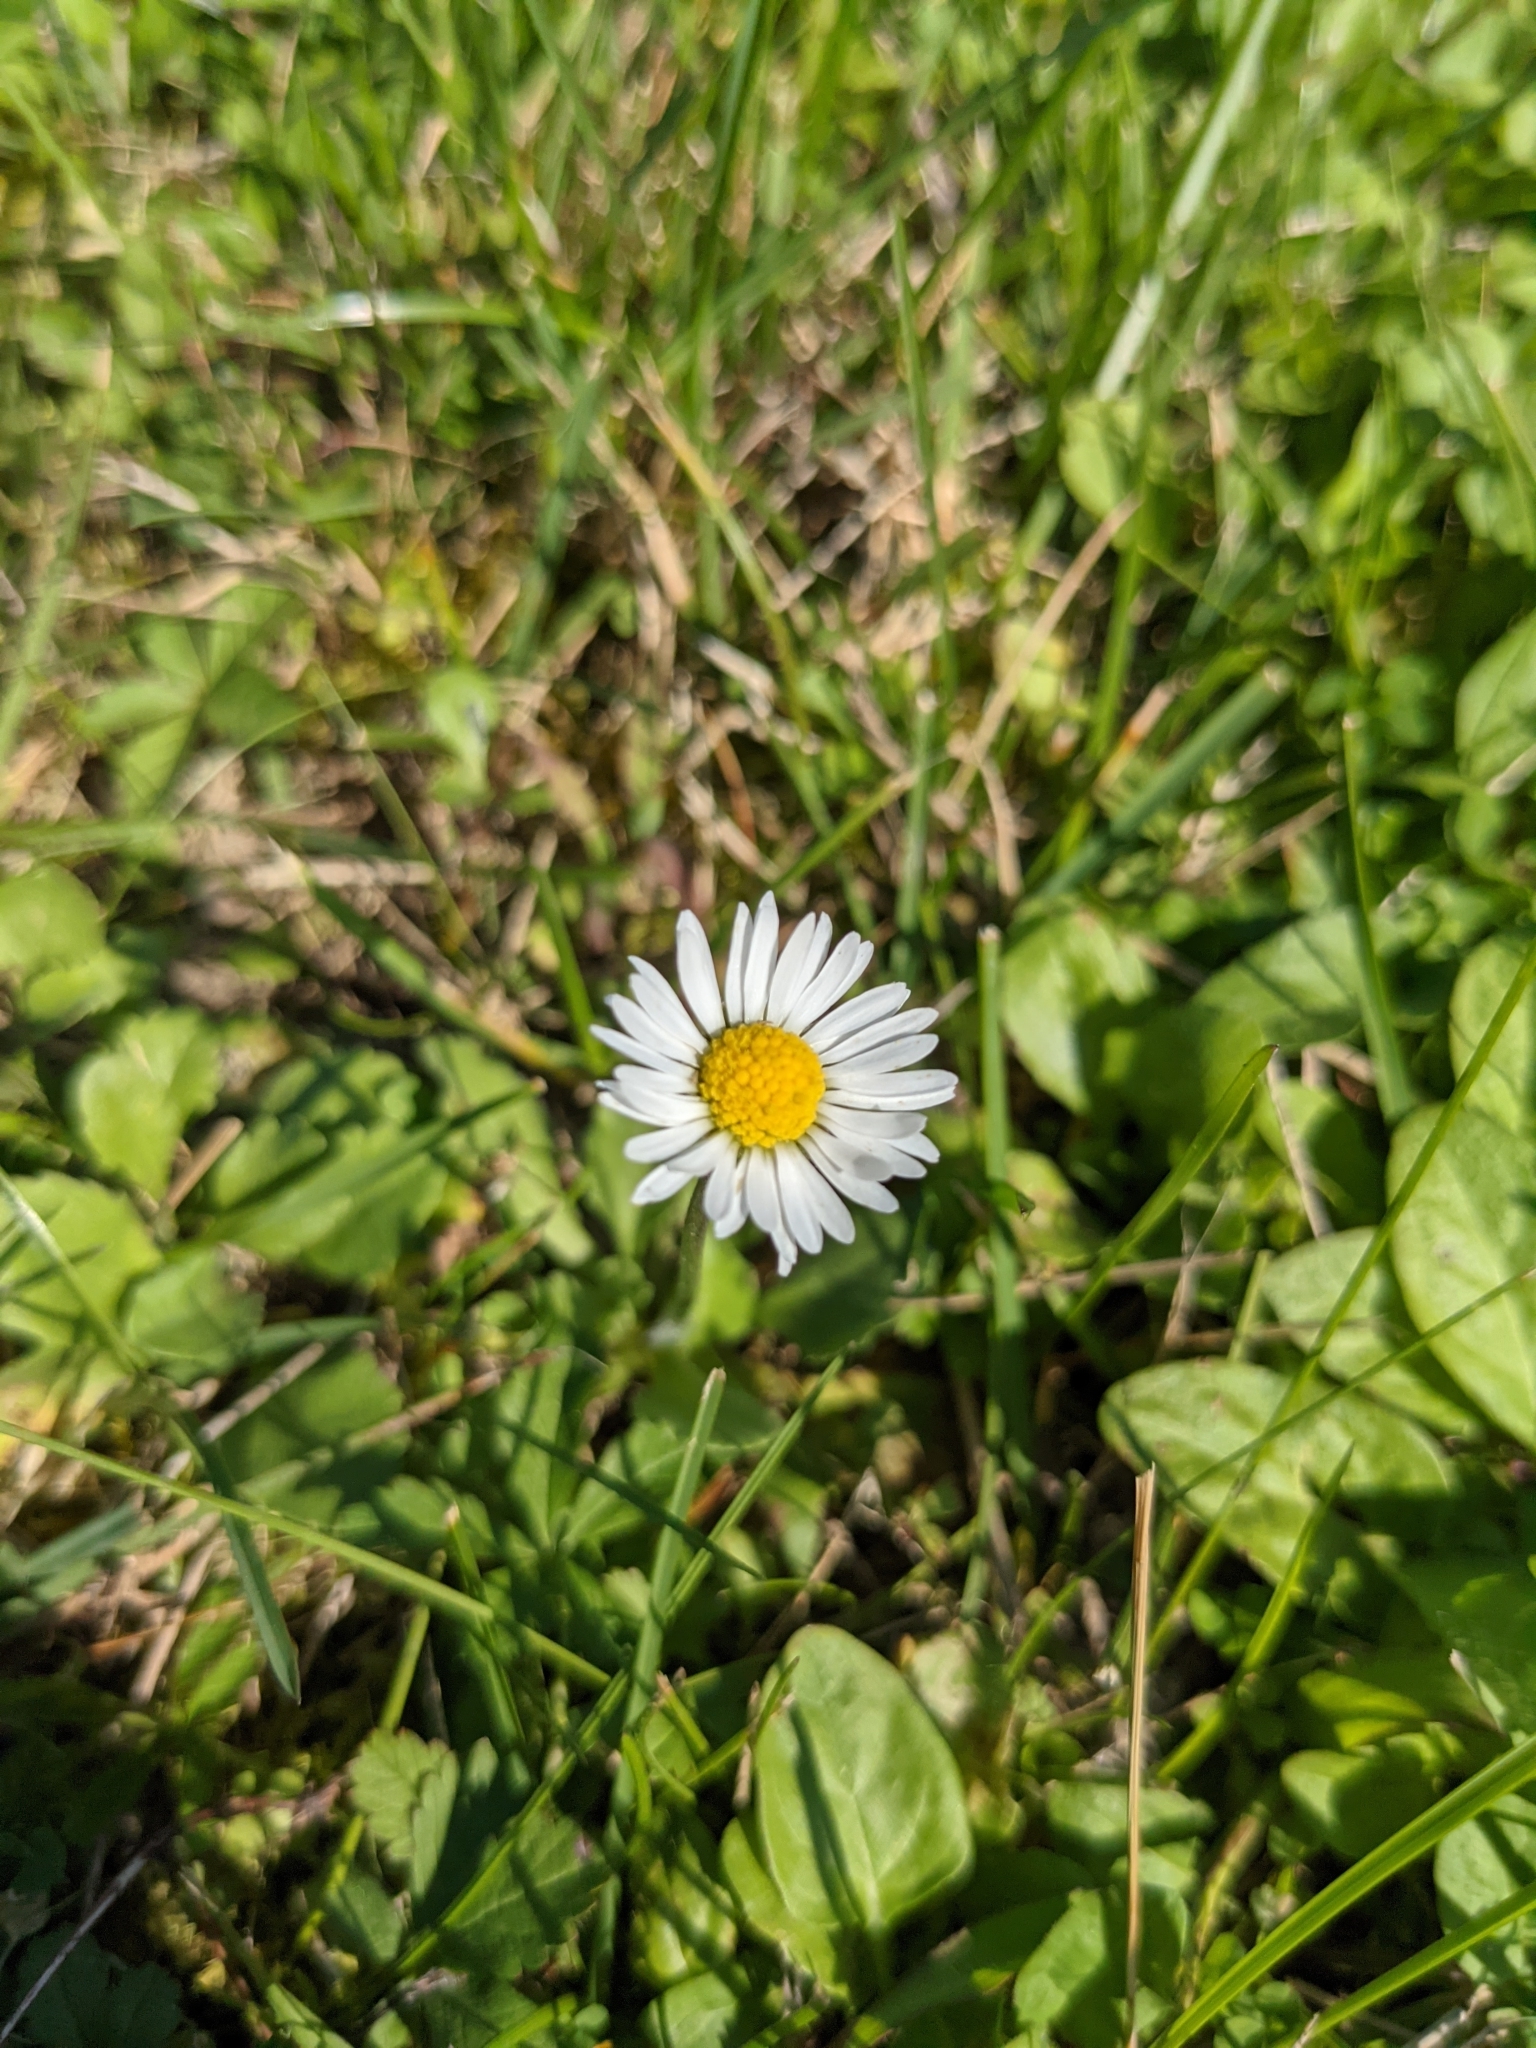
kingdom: Plantae
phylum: Tracheophyta
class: Magnoliopsida
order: Asterales
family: Asteraceae
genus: Bellis
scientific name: Bellis perennis
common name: Lawndaisy
